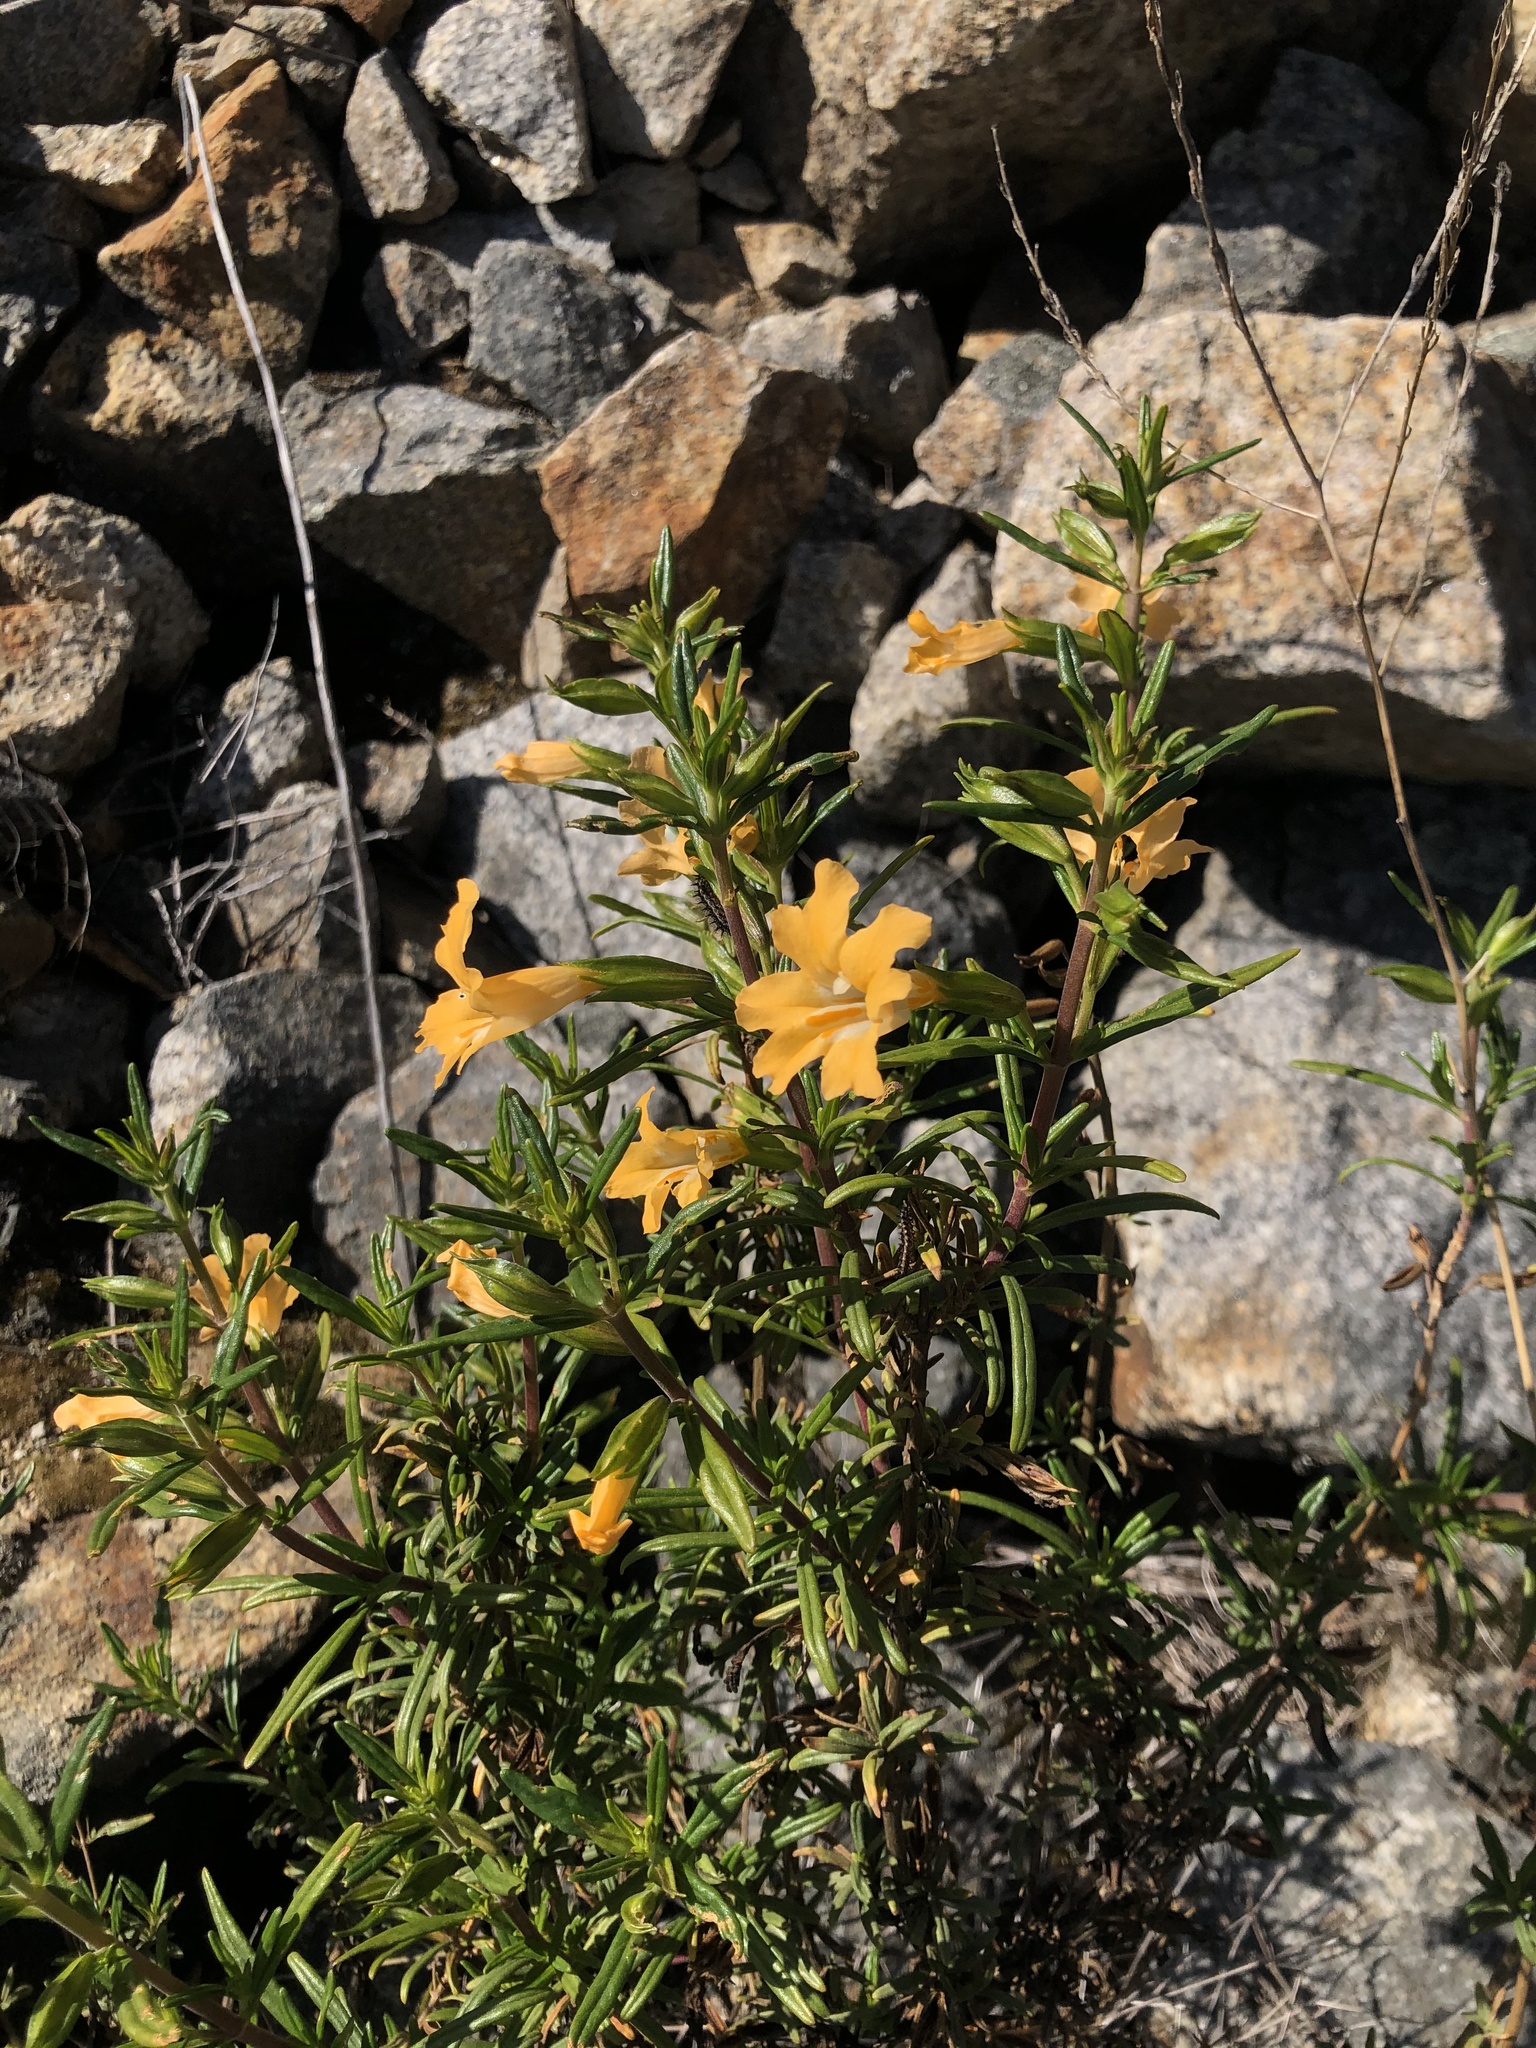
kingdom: Plantae
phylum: Tracheophyta
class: Magnoliopsida
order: Lamiales
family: Phrymaceae
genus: Diplacus
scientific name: Diplacus aurantiacus
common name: Bush monkey-flower
